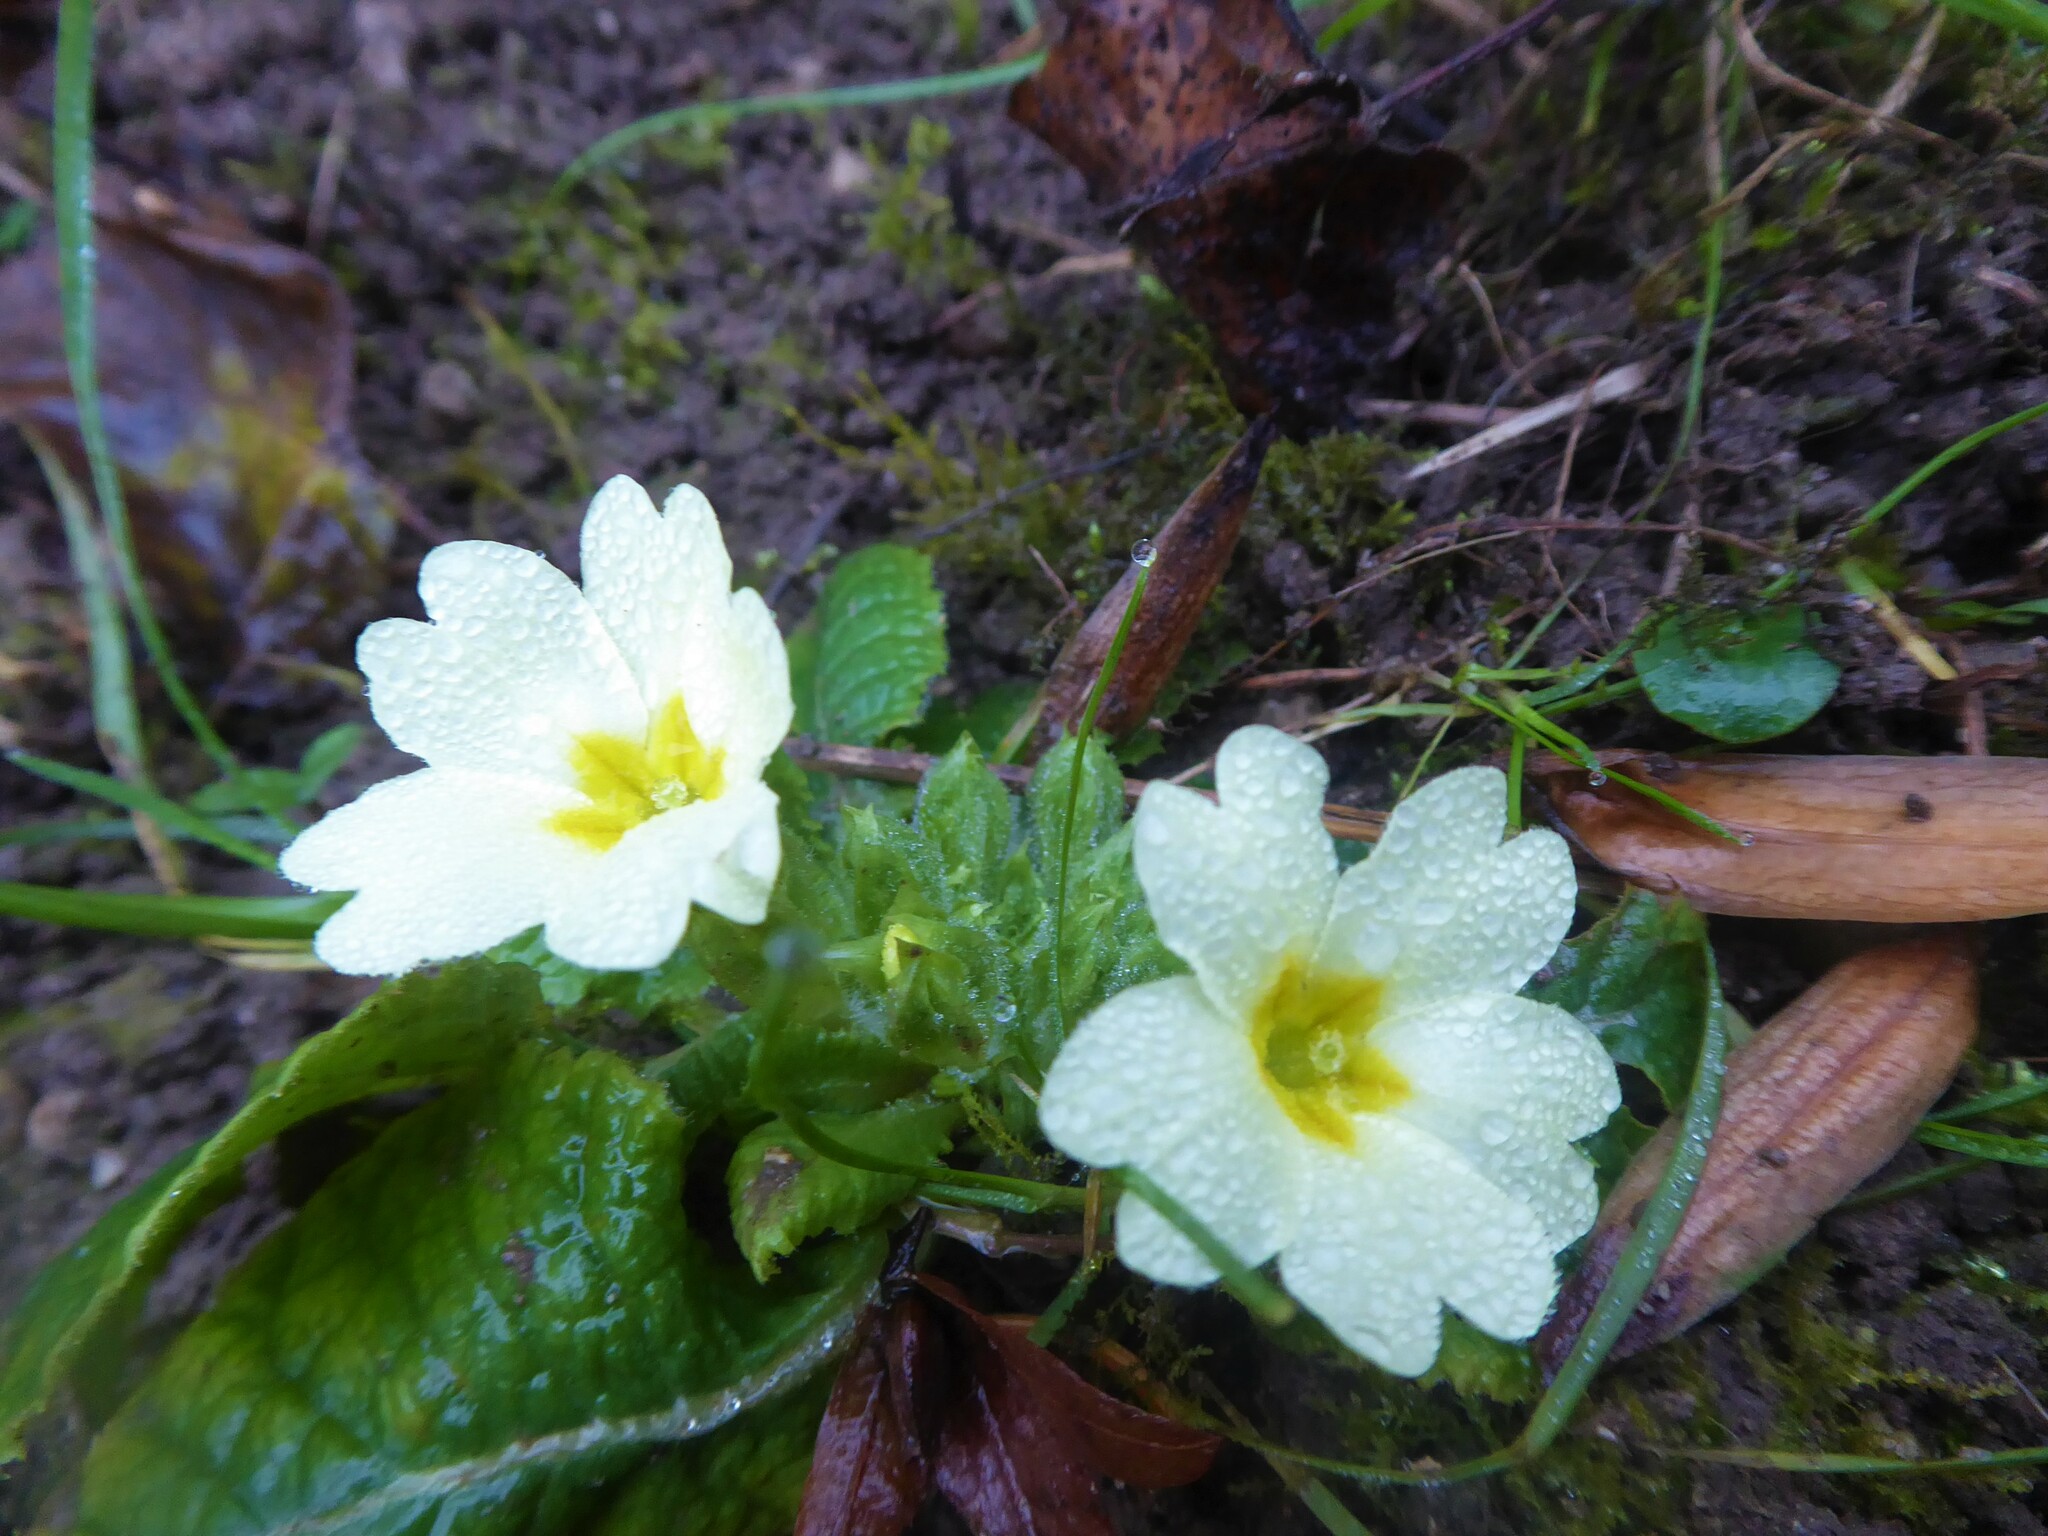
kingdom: Plantae
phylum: Tracheophyta
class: Magnoliopsida
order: Ericales
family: Primulaceae
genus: Primula
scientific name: Primula vulgaris
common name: Primrose
